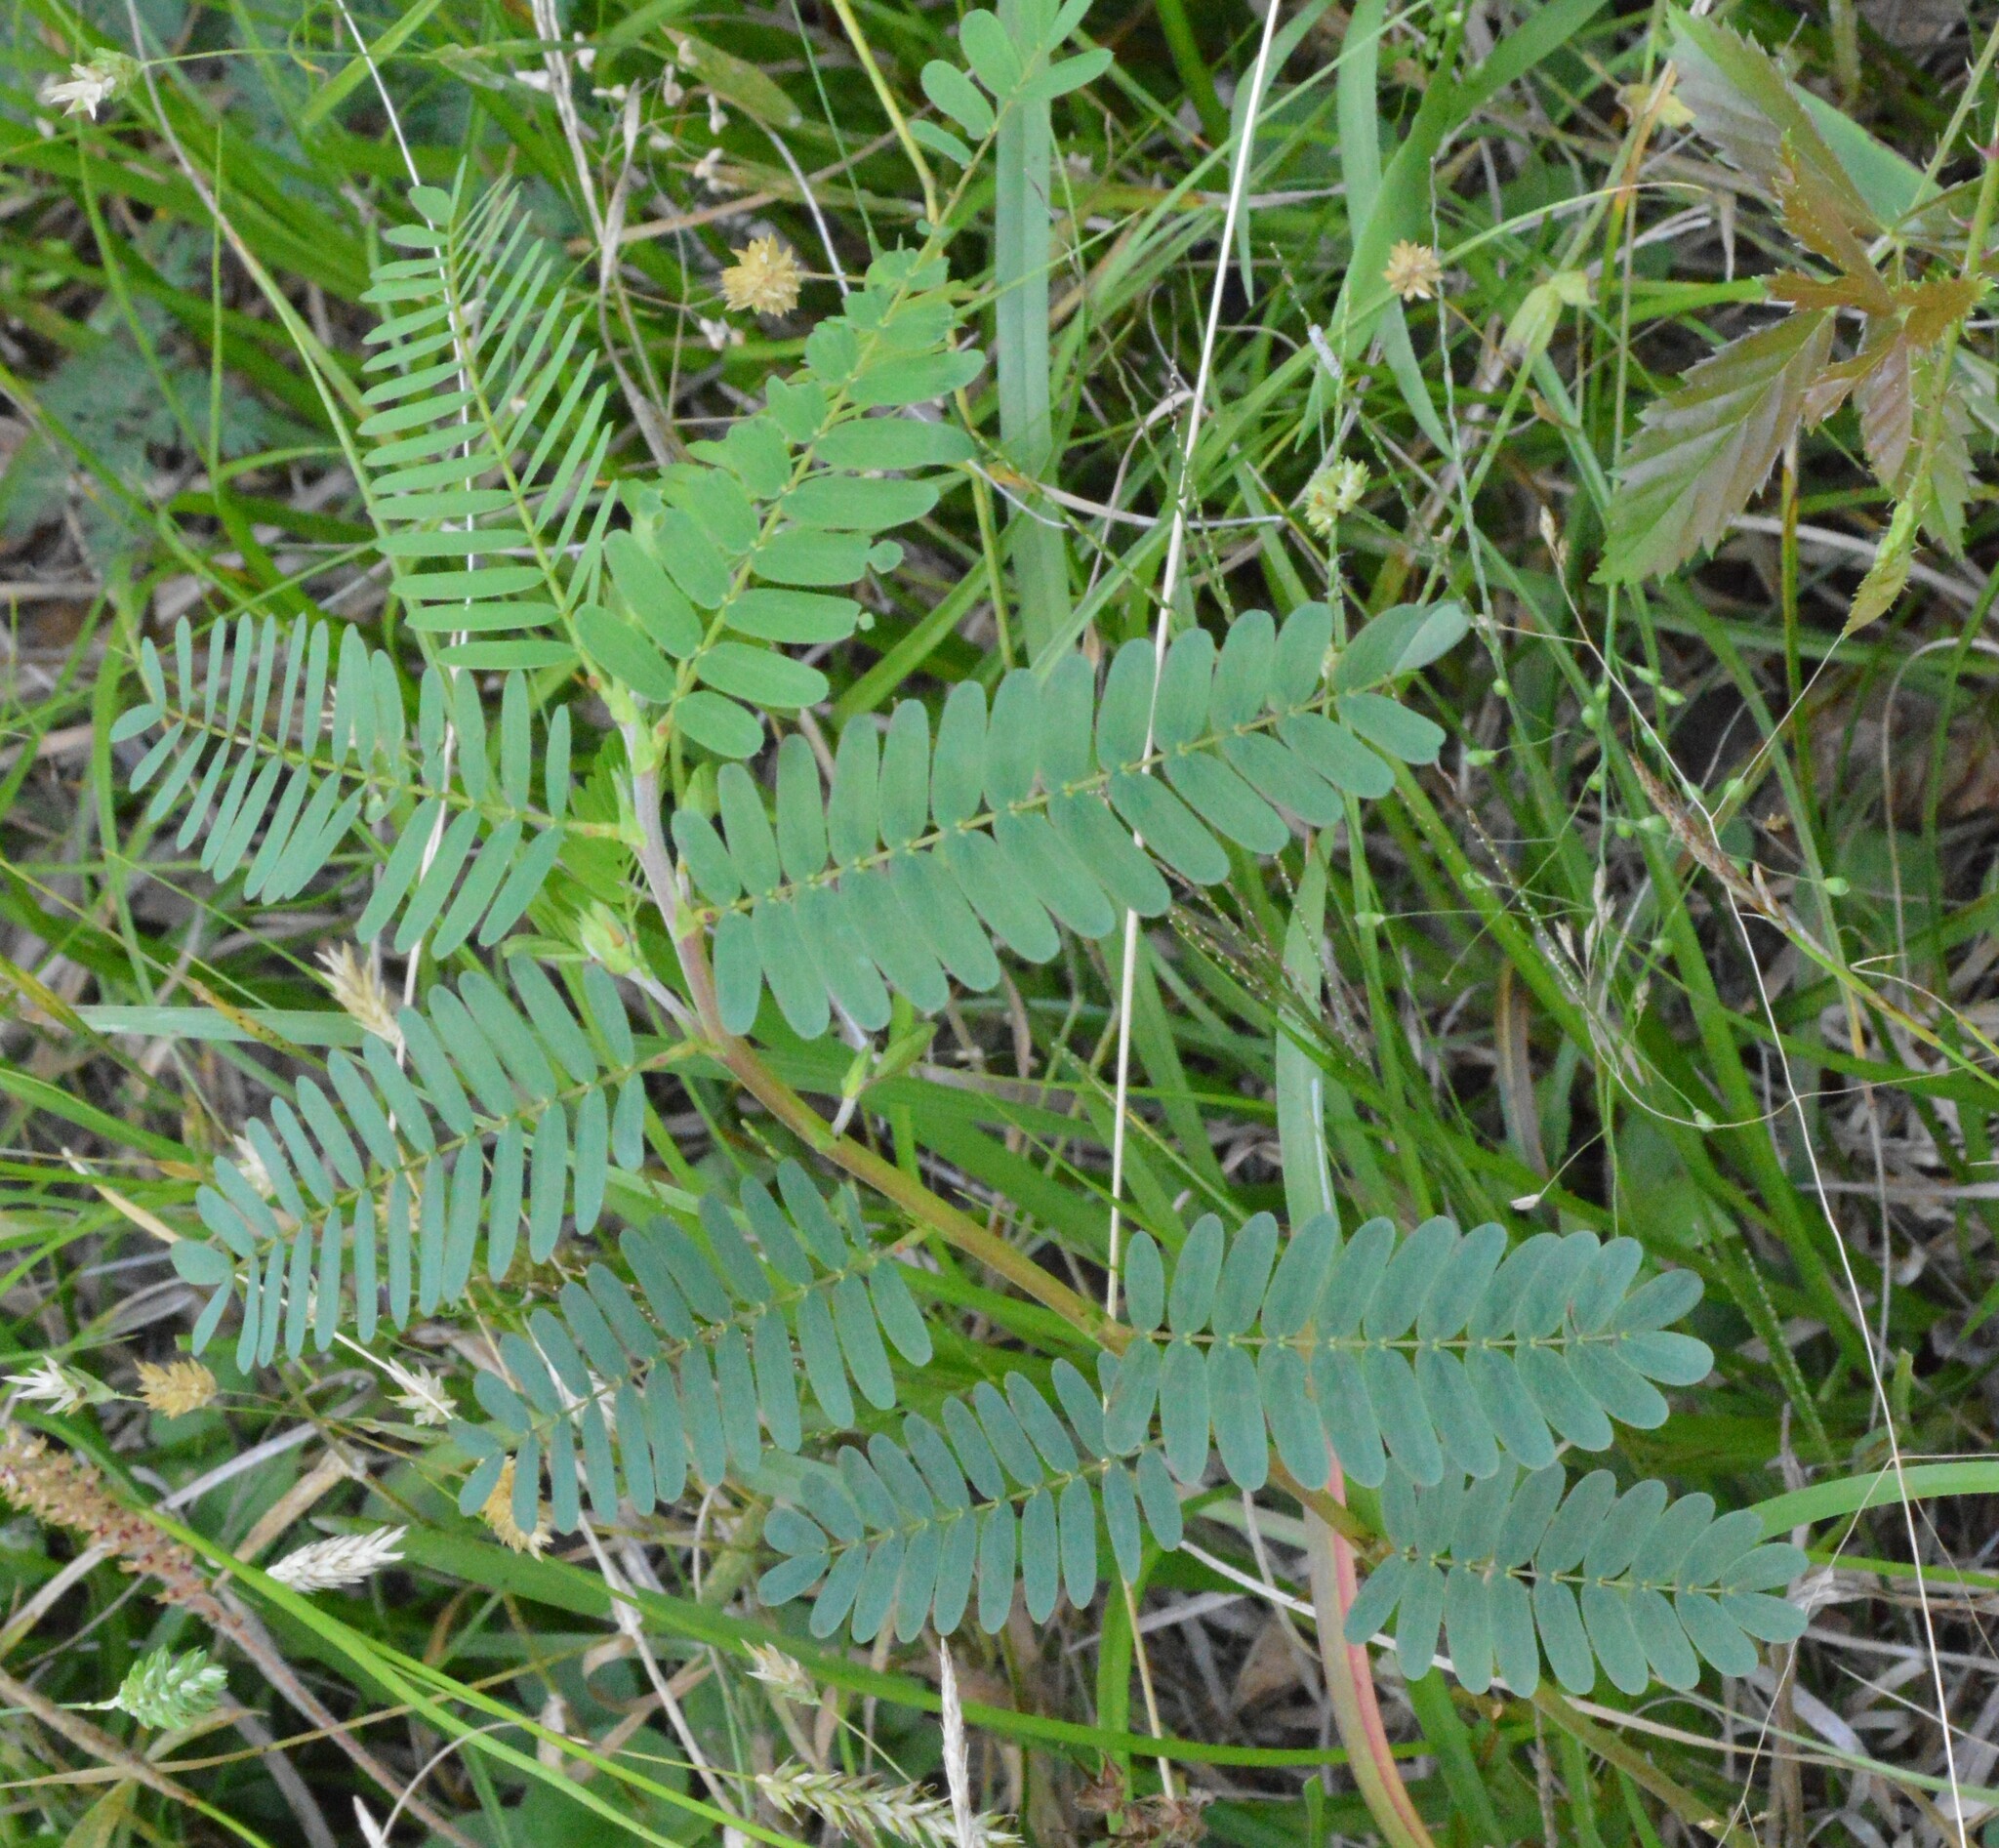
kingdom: Plantae
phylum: Tracheophyta
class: Magnoliopsida
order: Fabales
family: Fabaceae
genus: Chamaecrista
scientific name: Chamaecrista fasciculata
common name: Golden cassia
